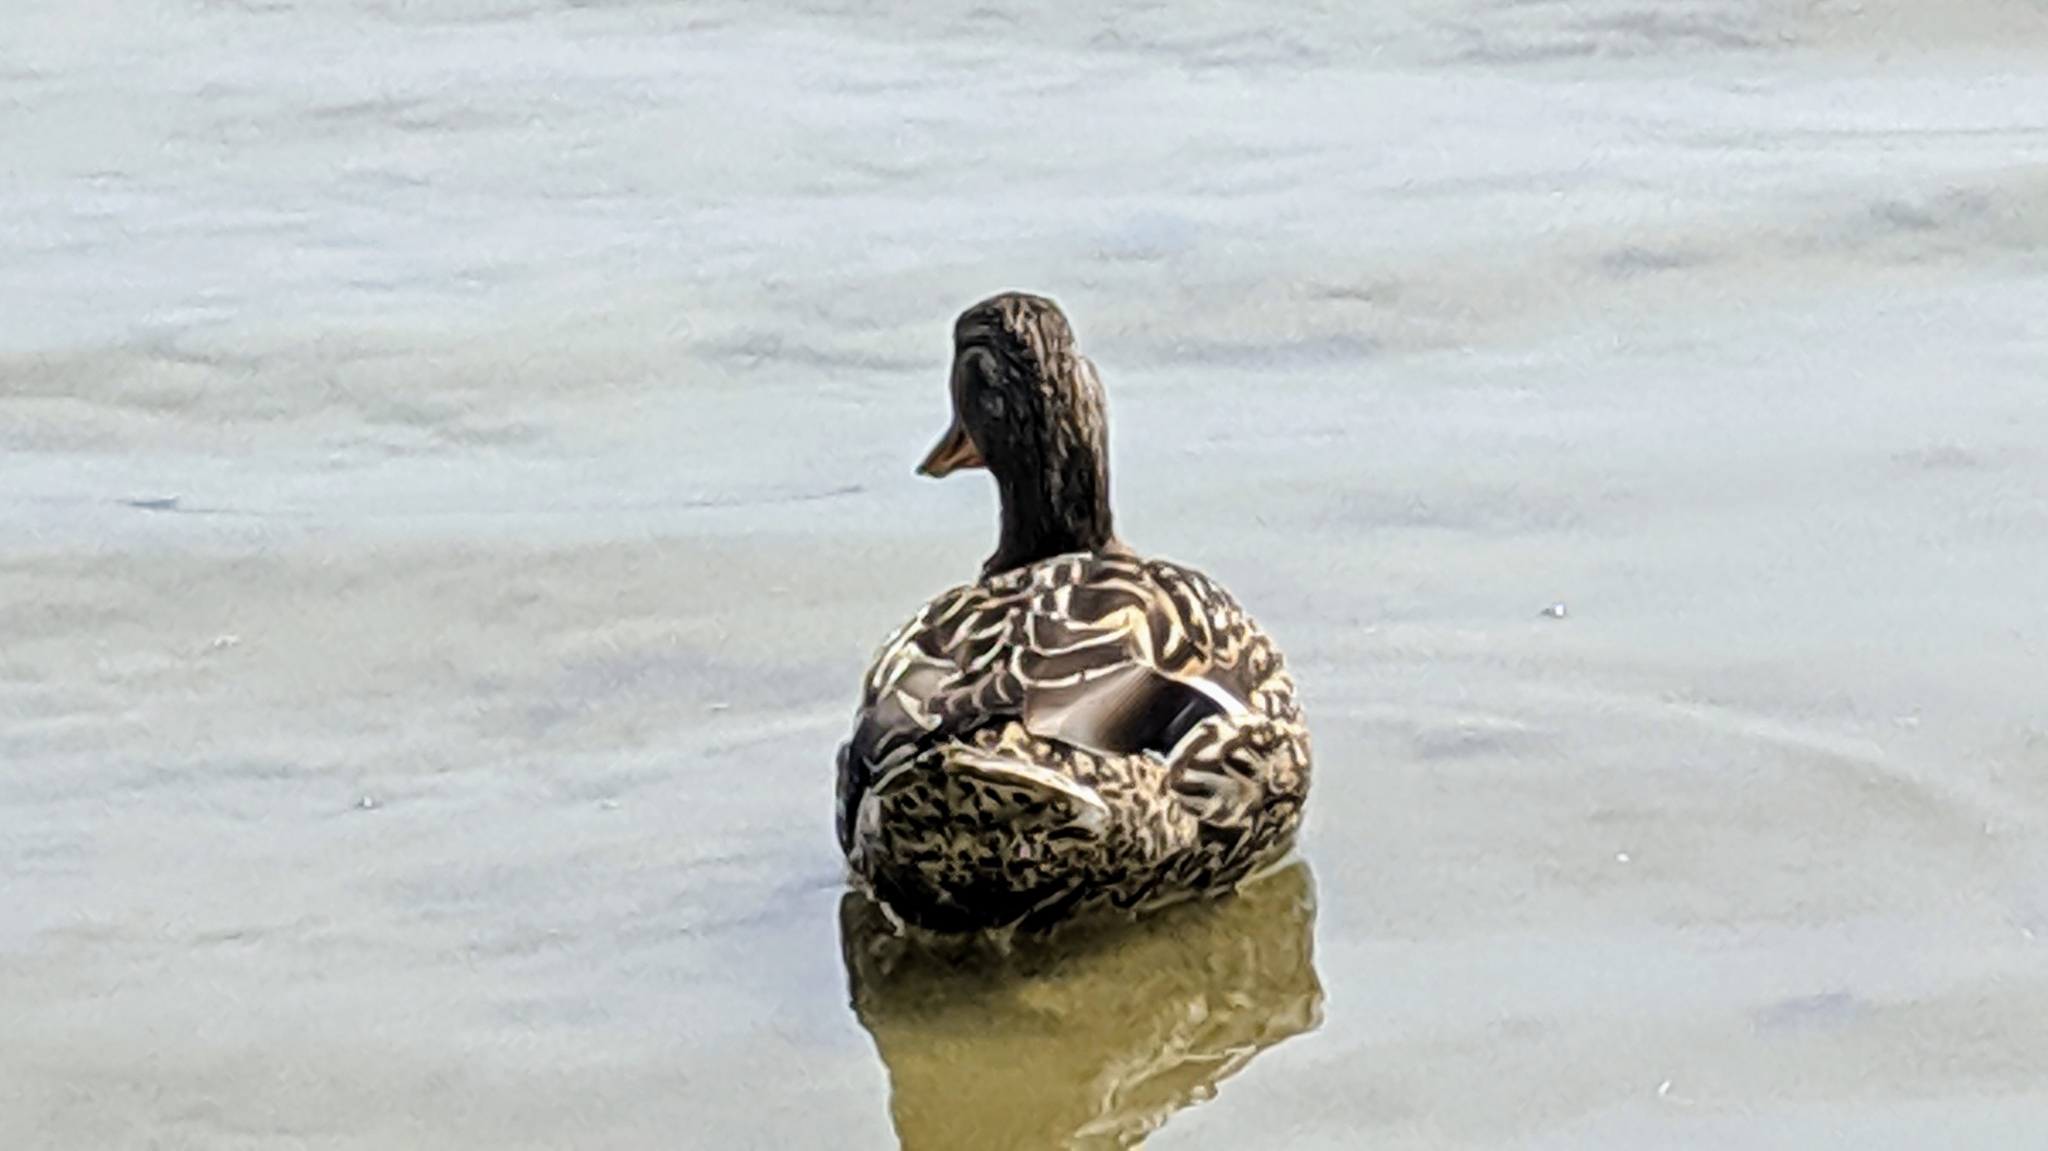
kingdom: Animalia
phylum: Chordata
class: Aves
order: Anseriformes
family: Anatidae
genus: Anas
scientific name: Anas platyrhynchos
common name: Mallard
